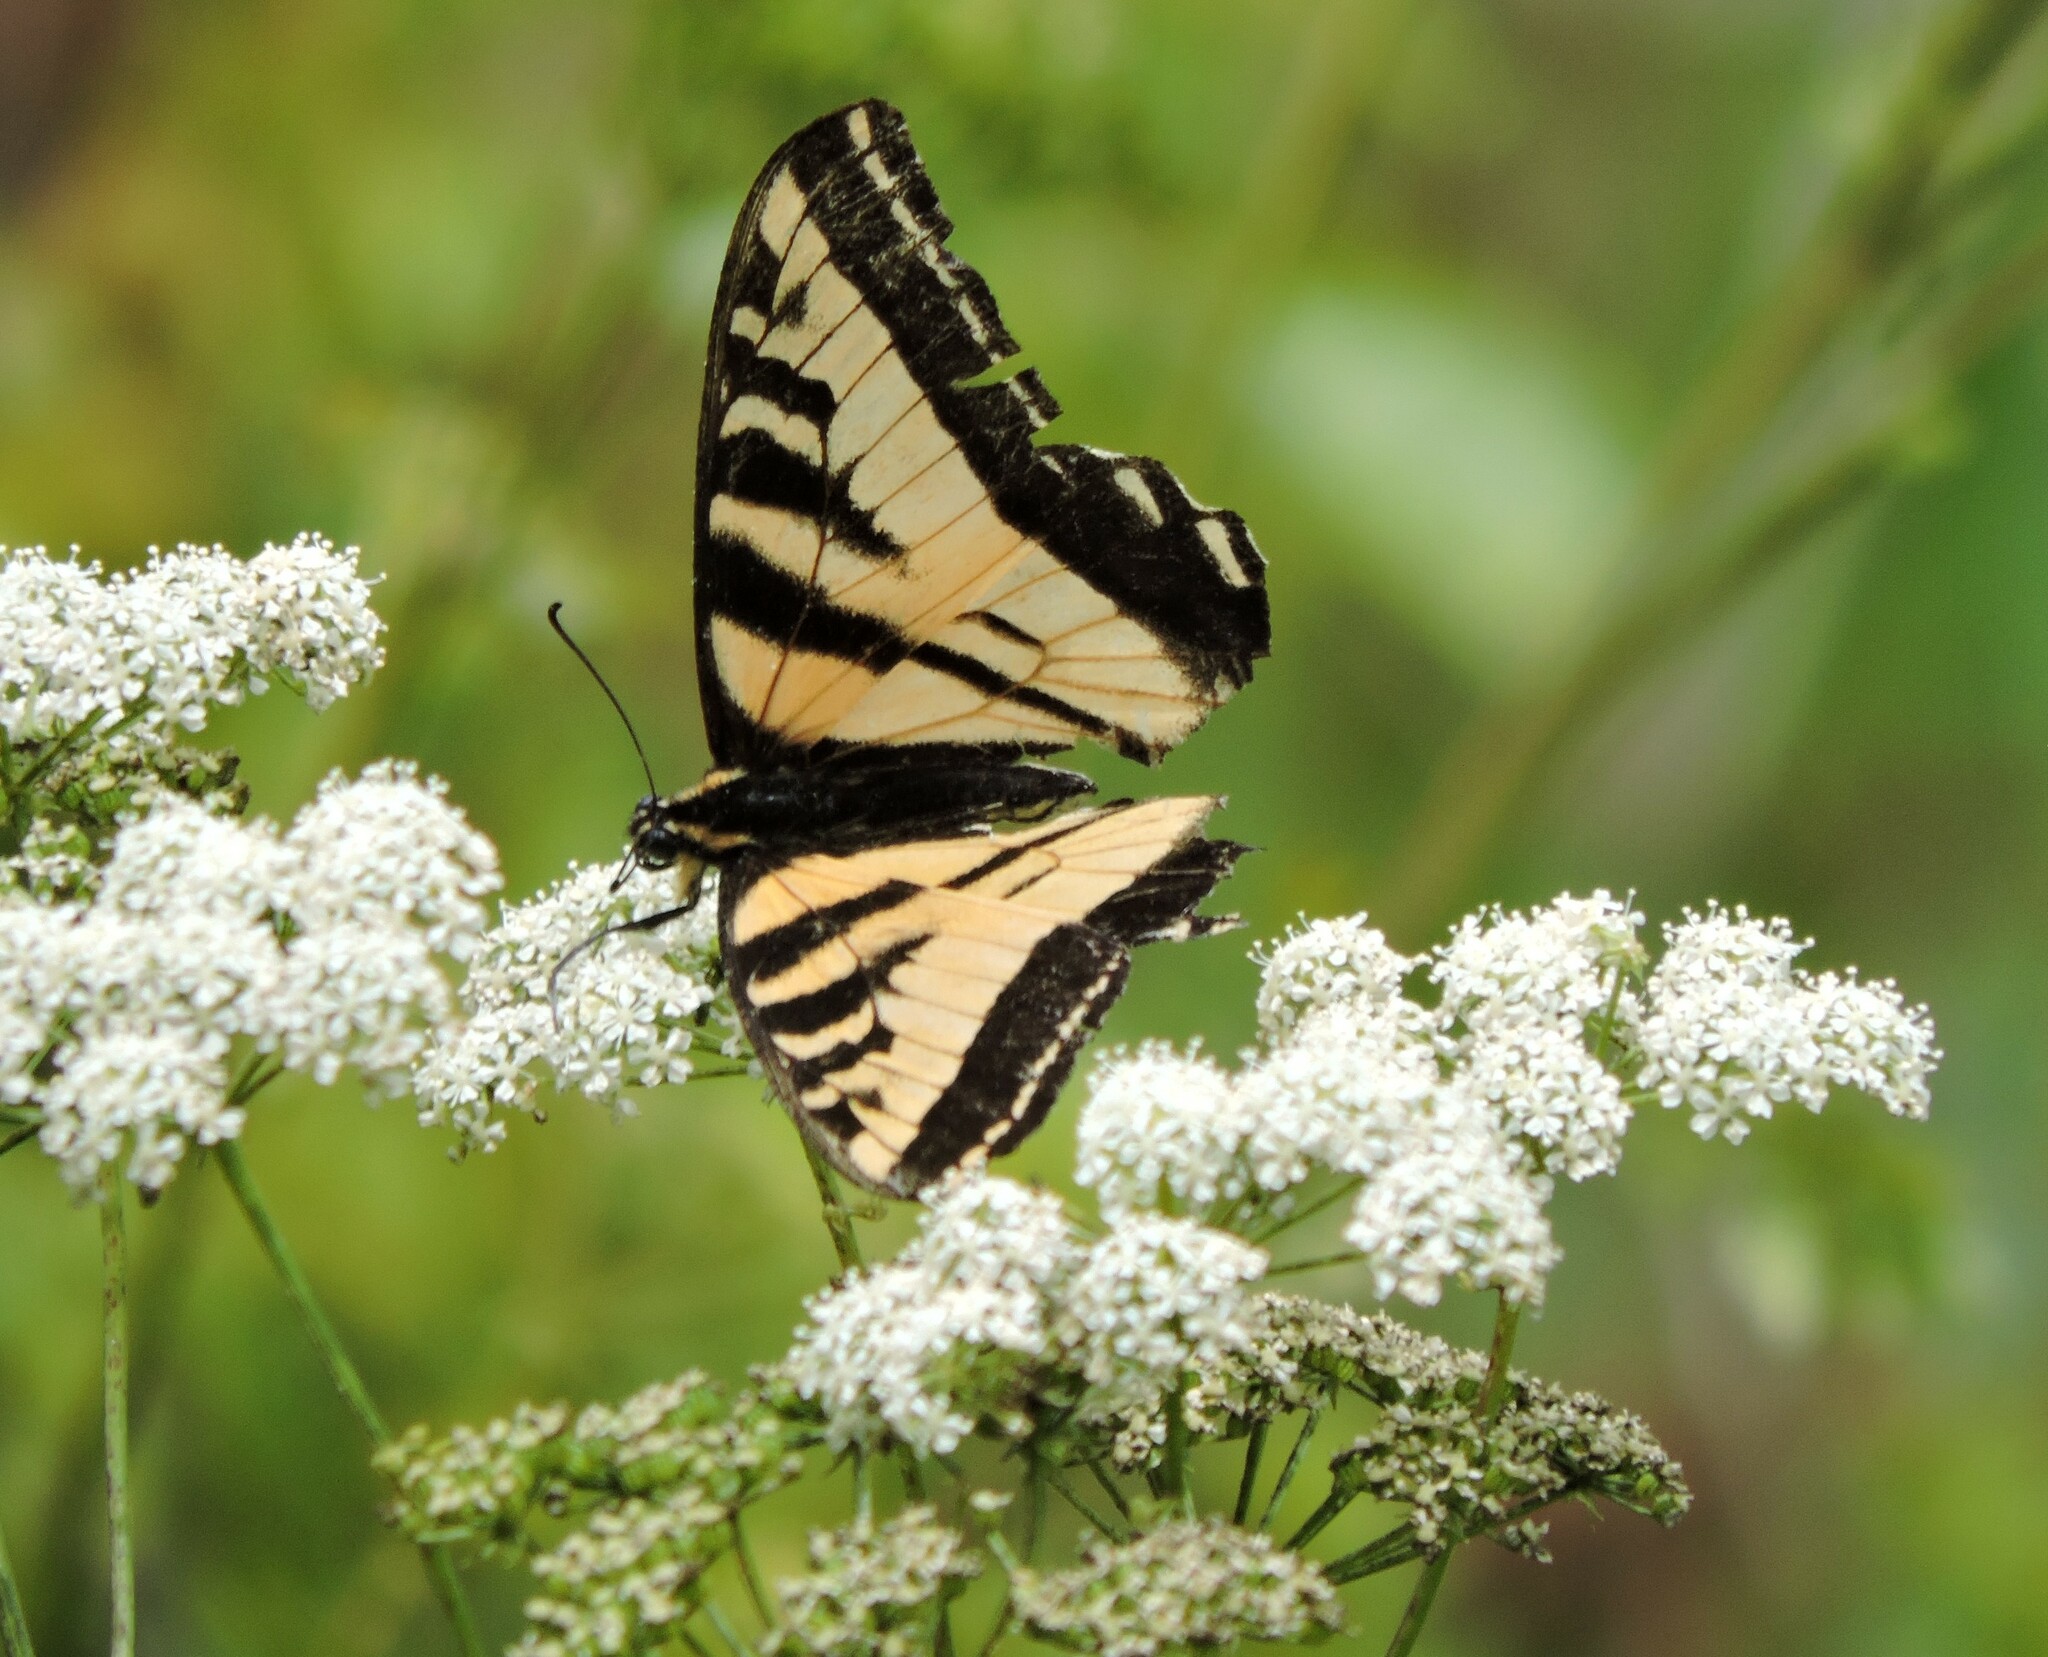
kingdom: Animalia
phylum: Arthropoda
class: Insecta
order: Lepidoptera
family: Papilionidae
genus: Papilio
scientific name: Papilio rutulus
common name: Western tiger swallowtail
